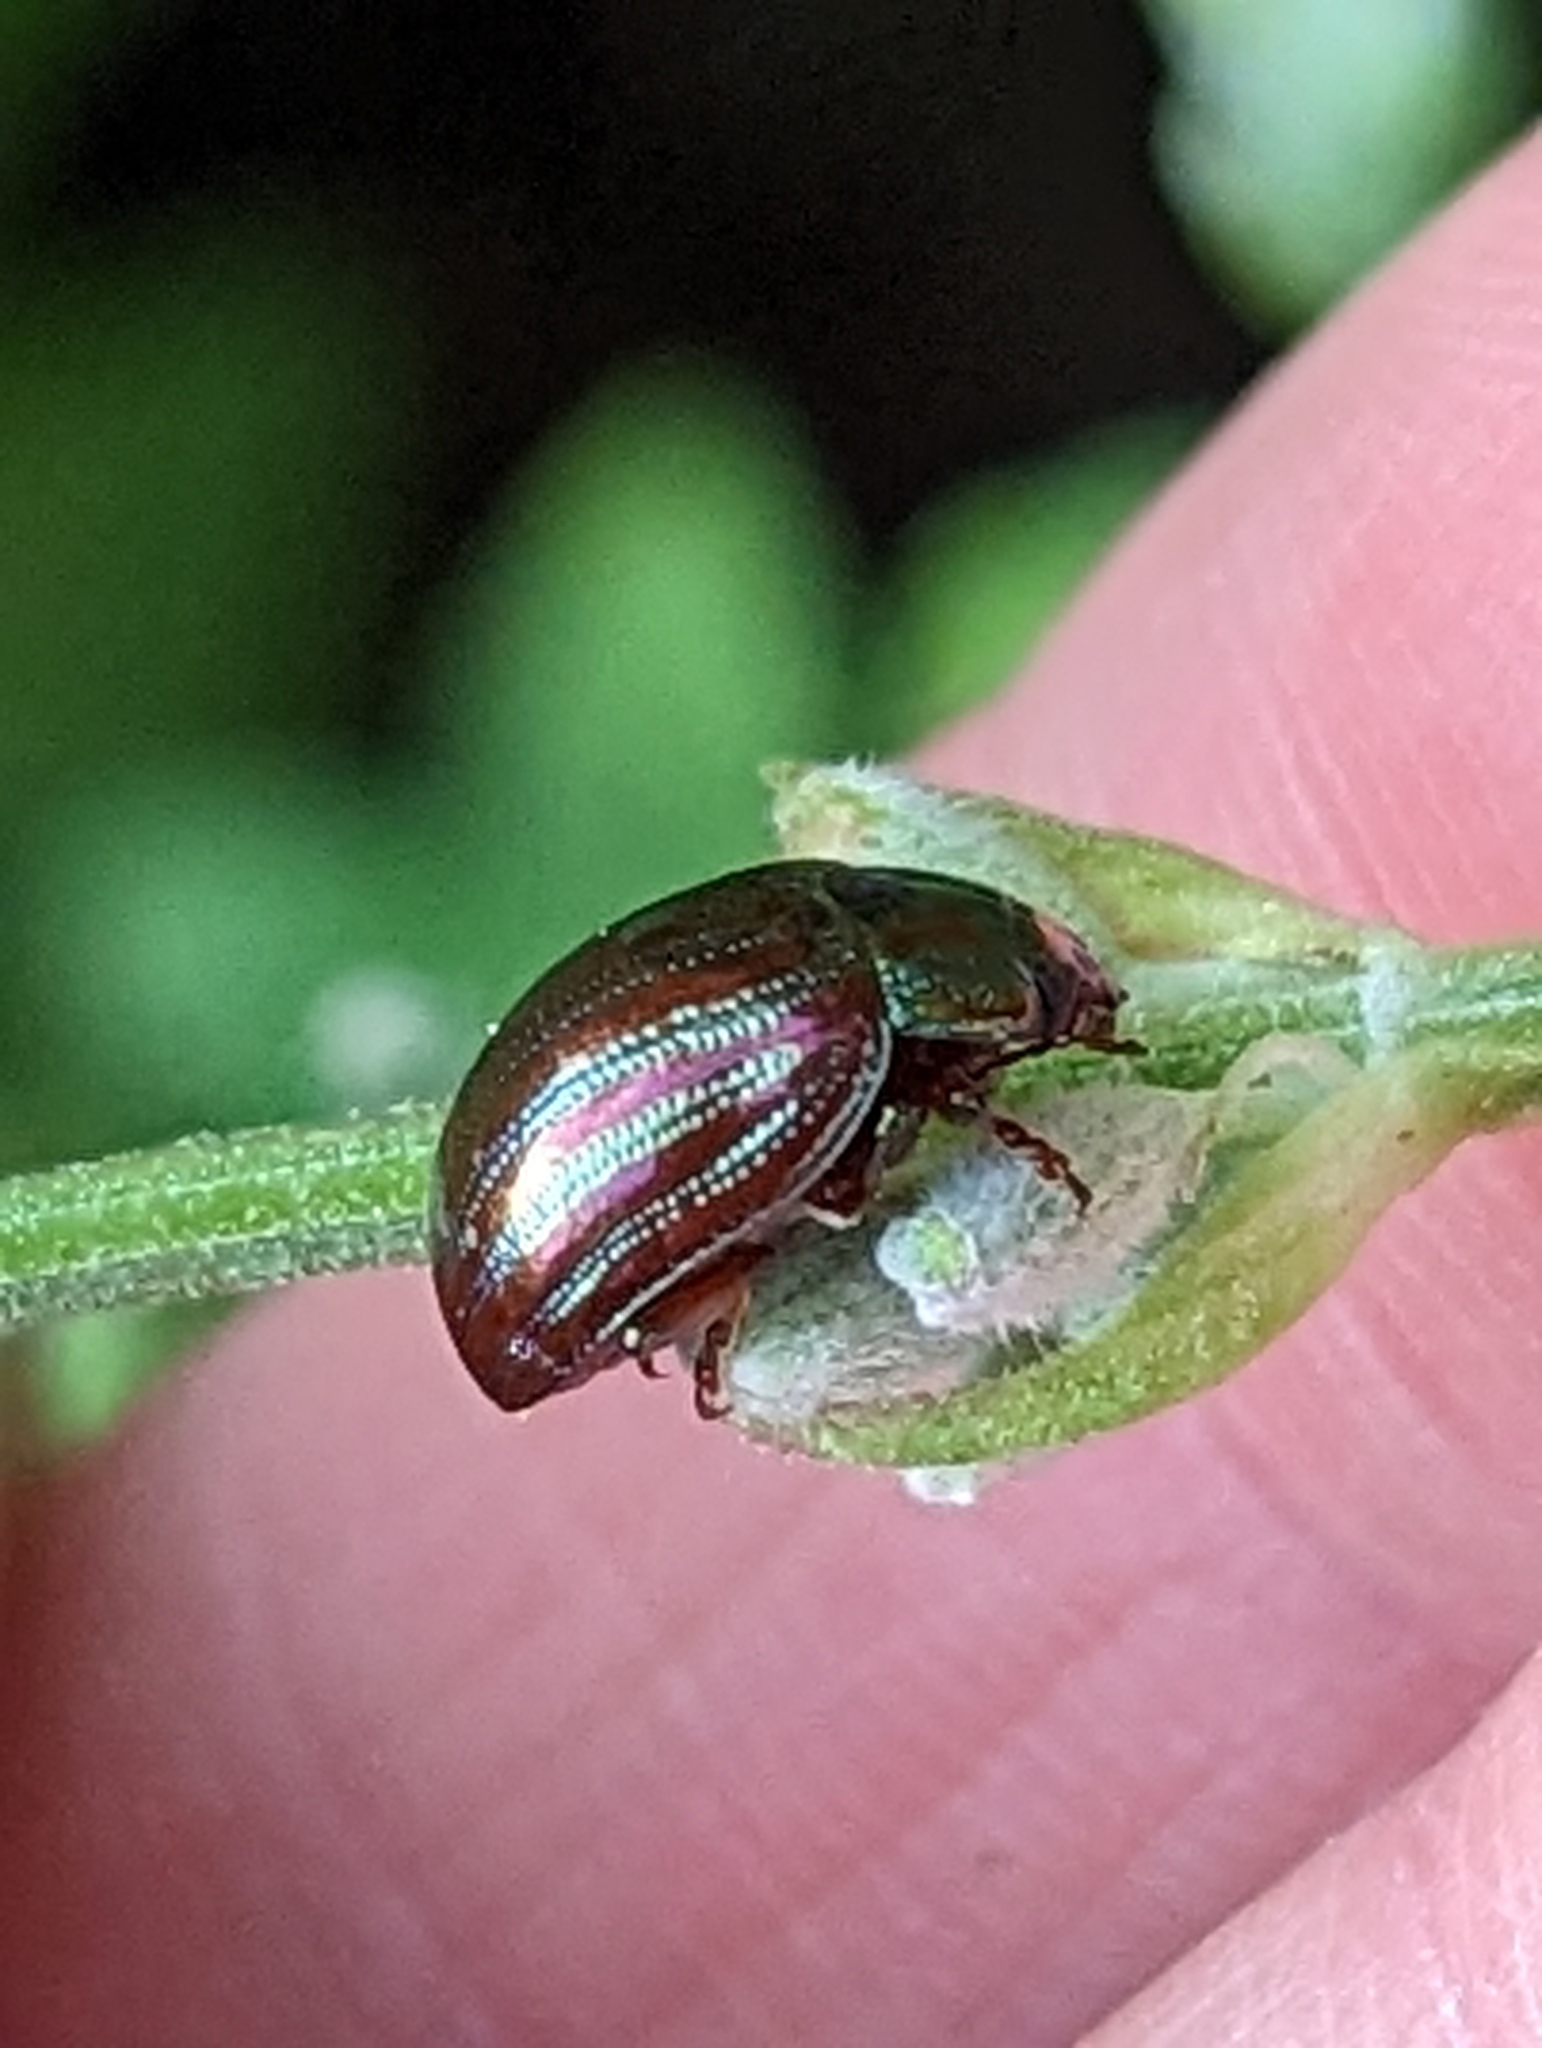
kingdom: Animalia
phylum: Arthropoda
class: Insecta
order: Coleoptera
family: Chrysomelidae
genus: Chrysolina
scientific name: Chrysolina americana
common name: Rosemary beetle
